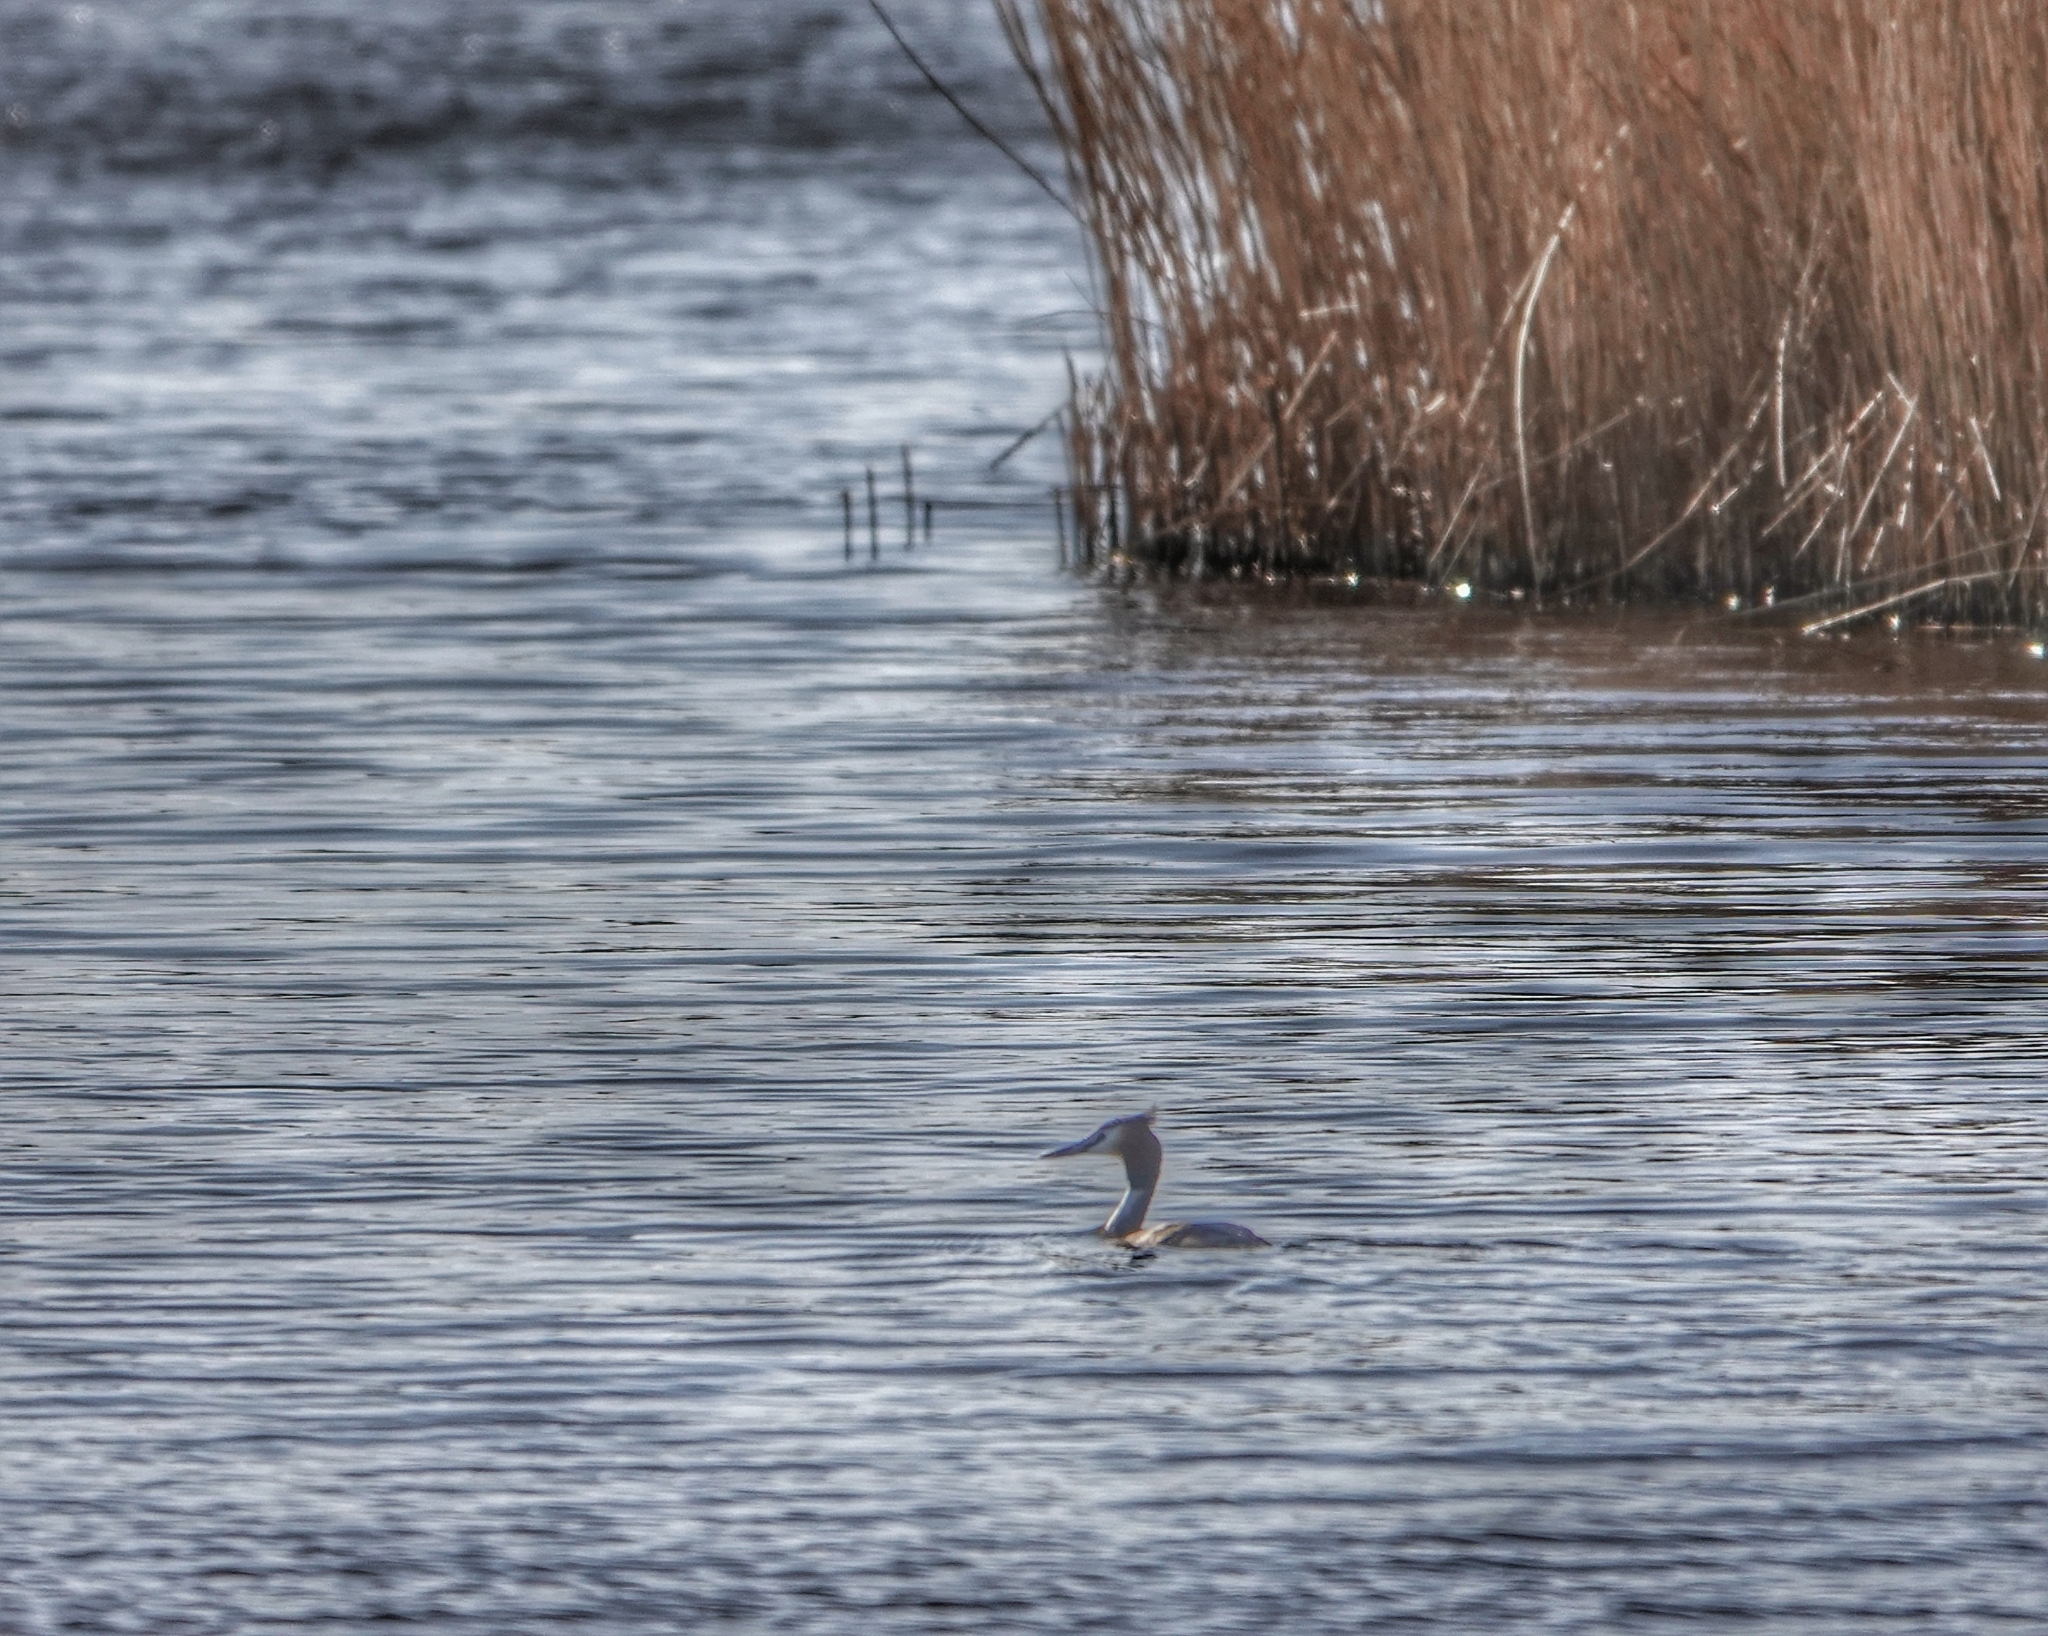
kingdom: Animalia
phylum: Chordata
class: Aves
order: Podicipediformes
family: Podicipedidae
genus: Podiceps
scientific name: Podiceps cristatus
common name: Great crested grebe
